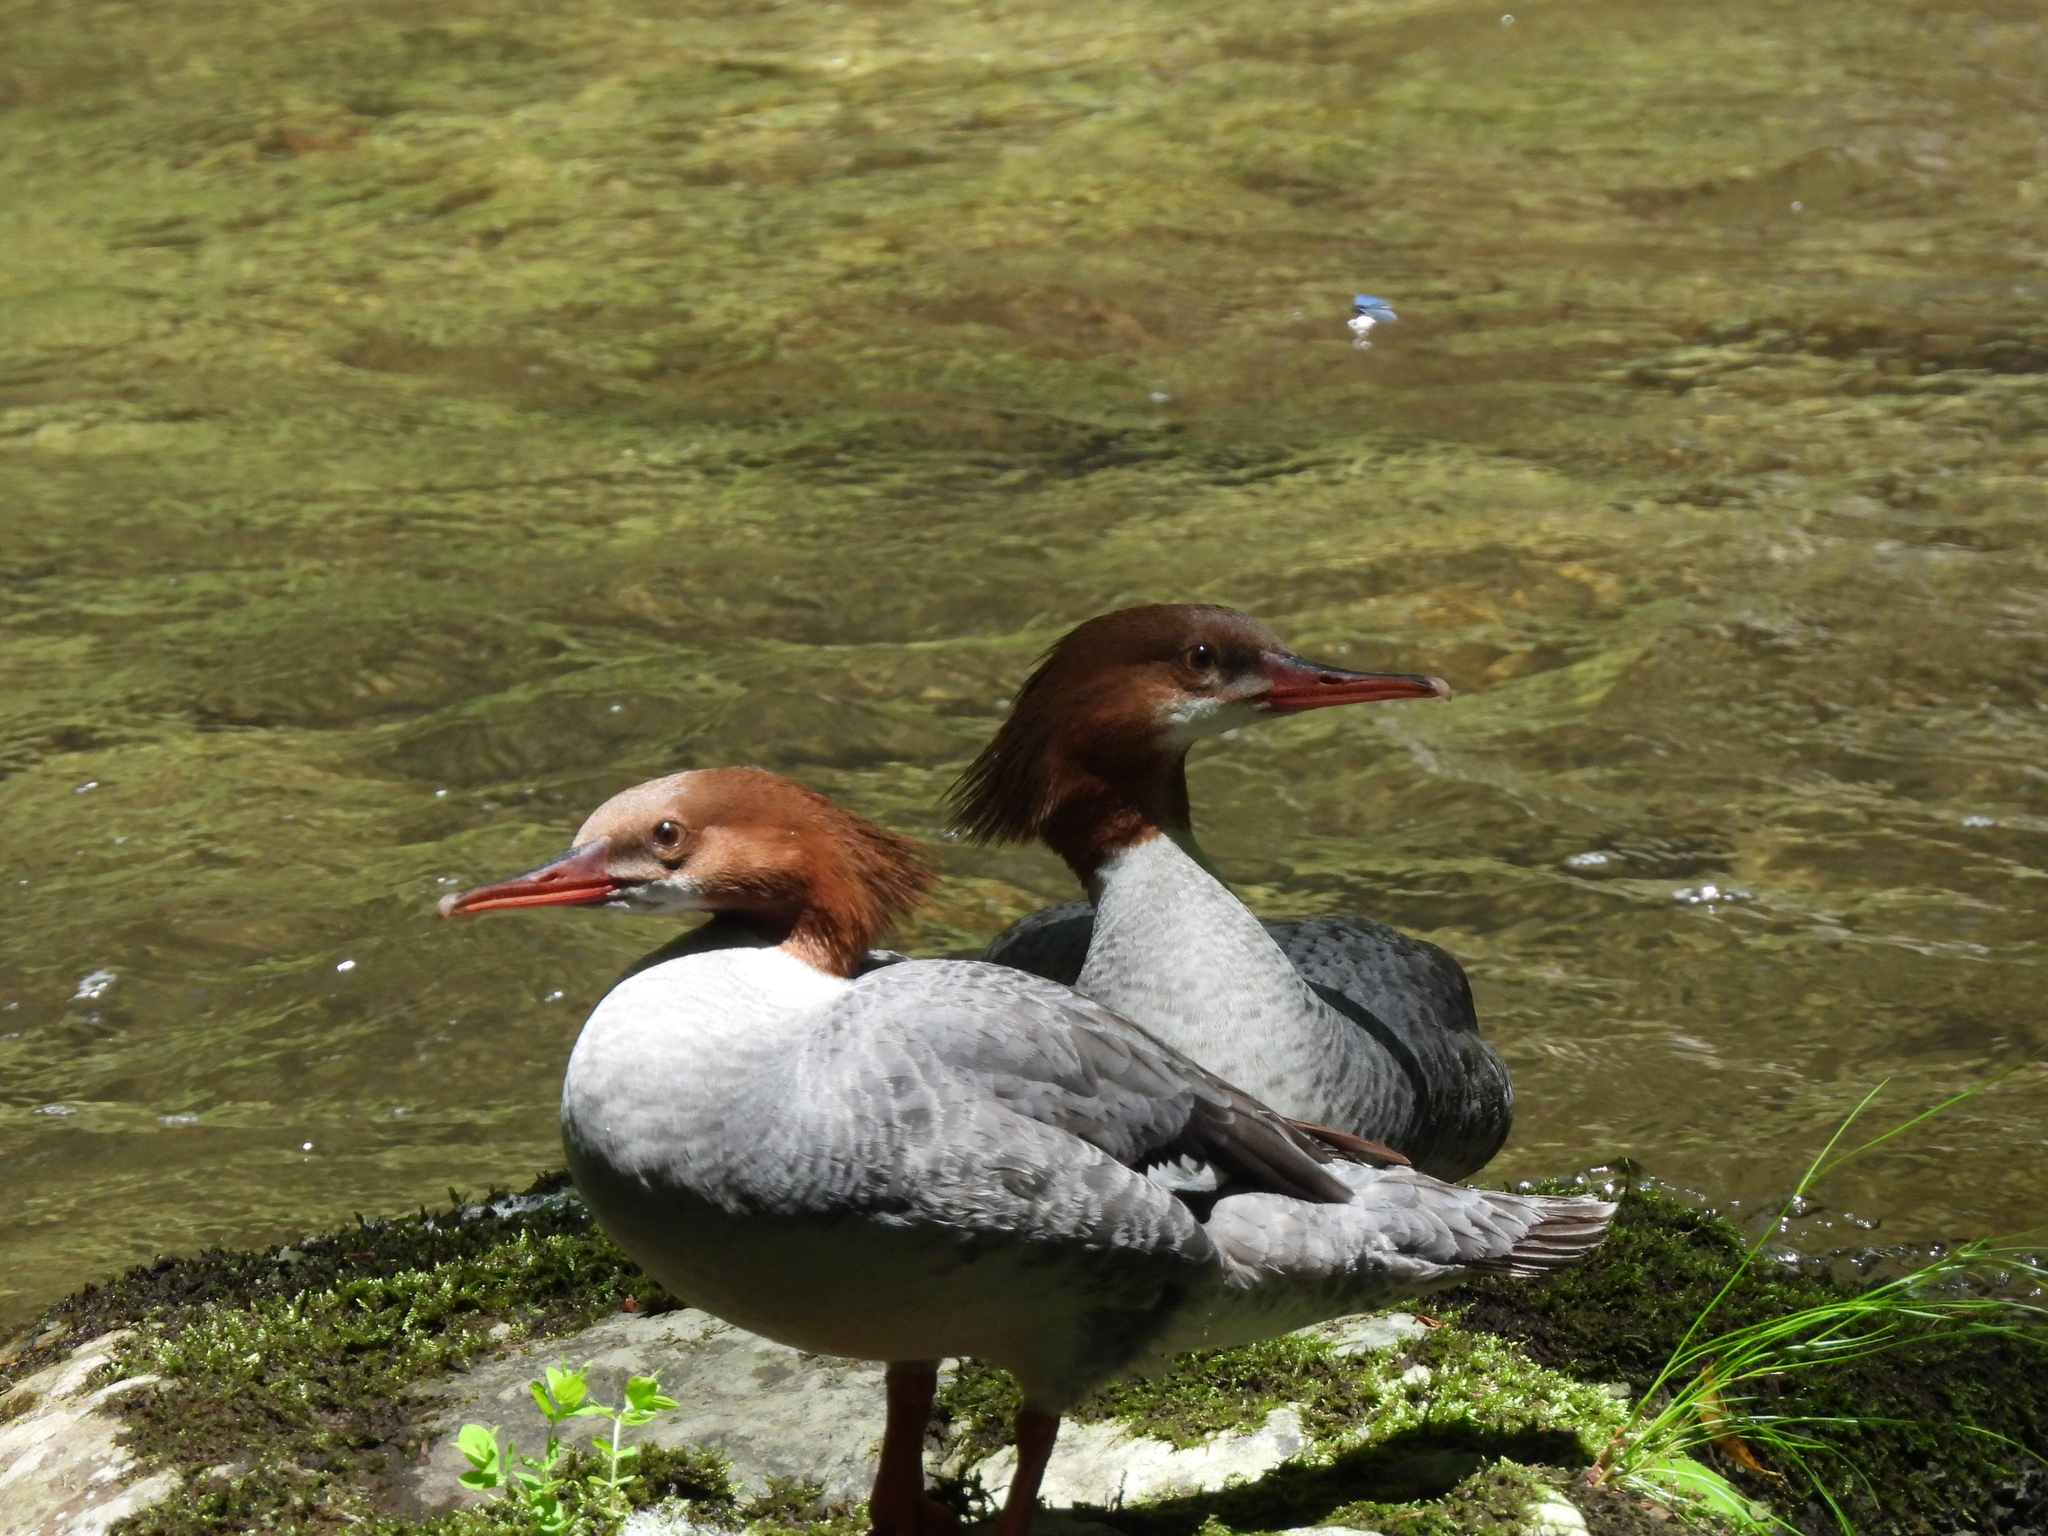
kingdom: Animalia
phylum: Chordata
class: Aves
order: Anseriformes
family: Anatidae
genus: Mergus
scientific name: Mergus merganser
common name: Common merganser
